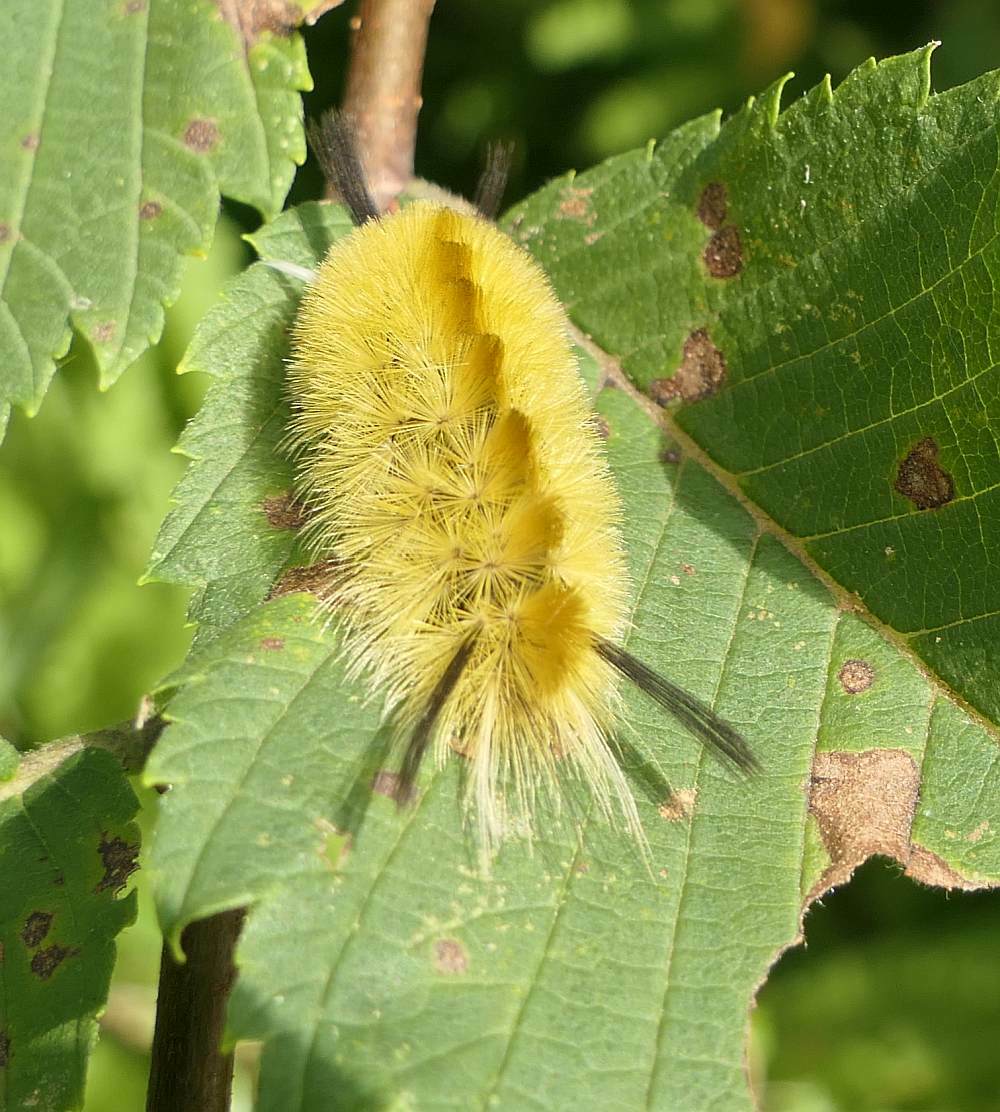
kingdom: Animalia
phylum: Arthropoda
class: Insecta
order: Lepidoptera
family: Erebidae
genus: Halysidota
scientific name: Halysidota tessellaris
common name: Banded tussock moth
